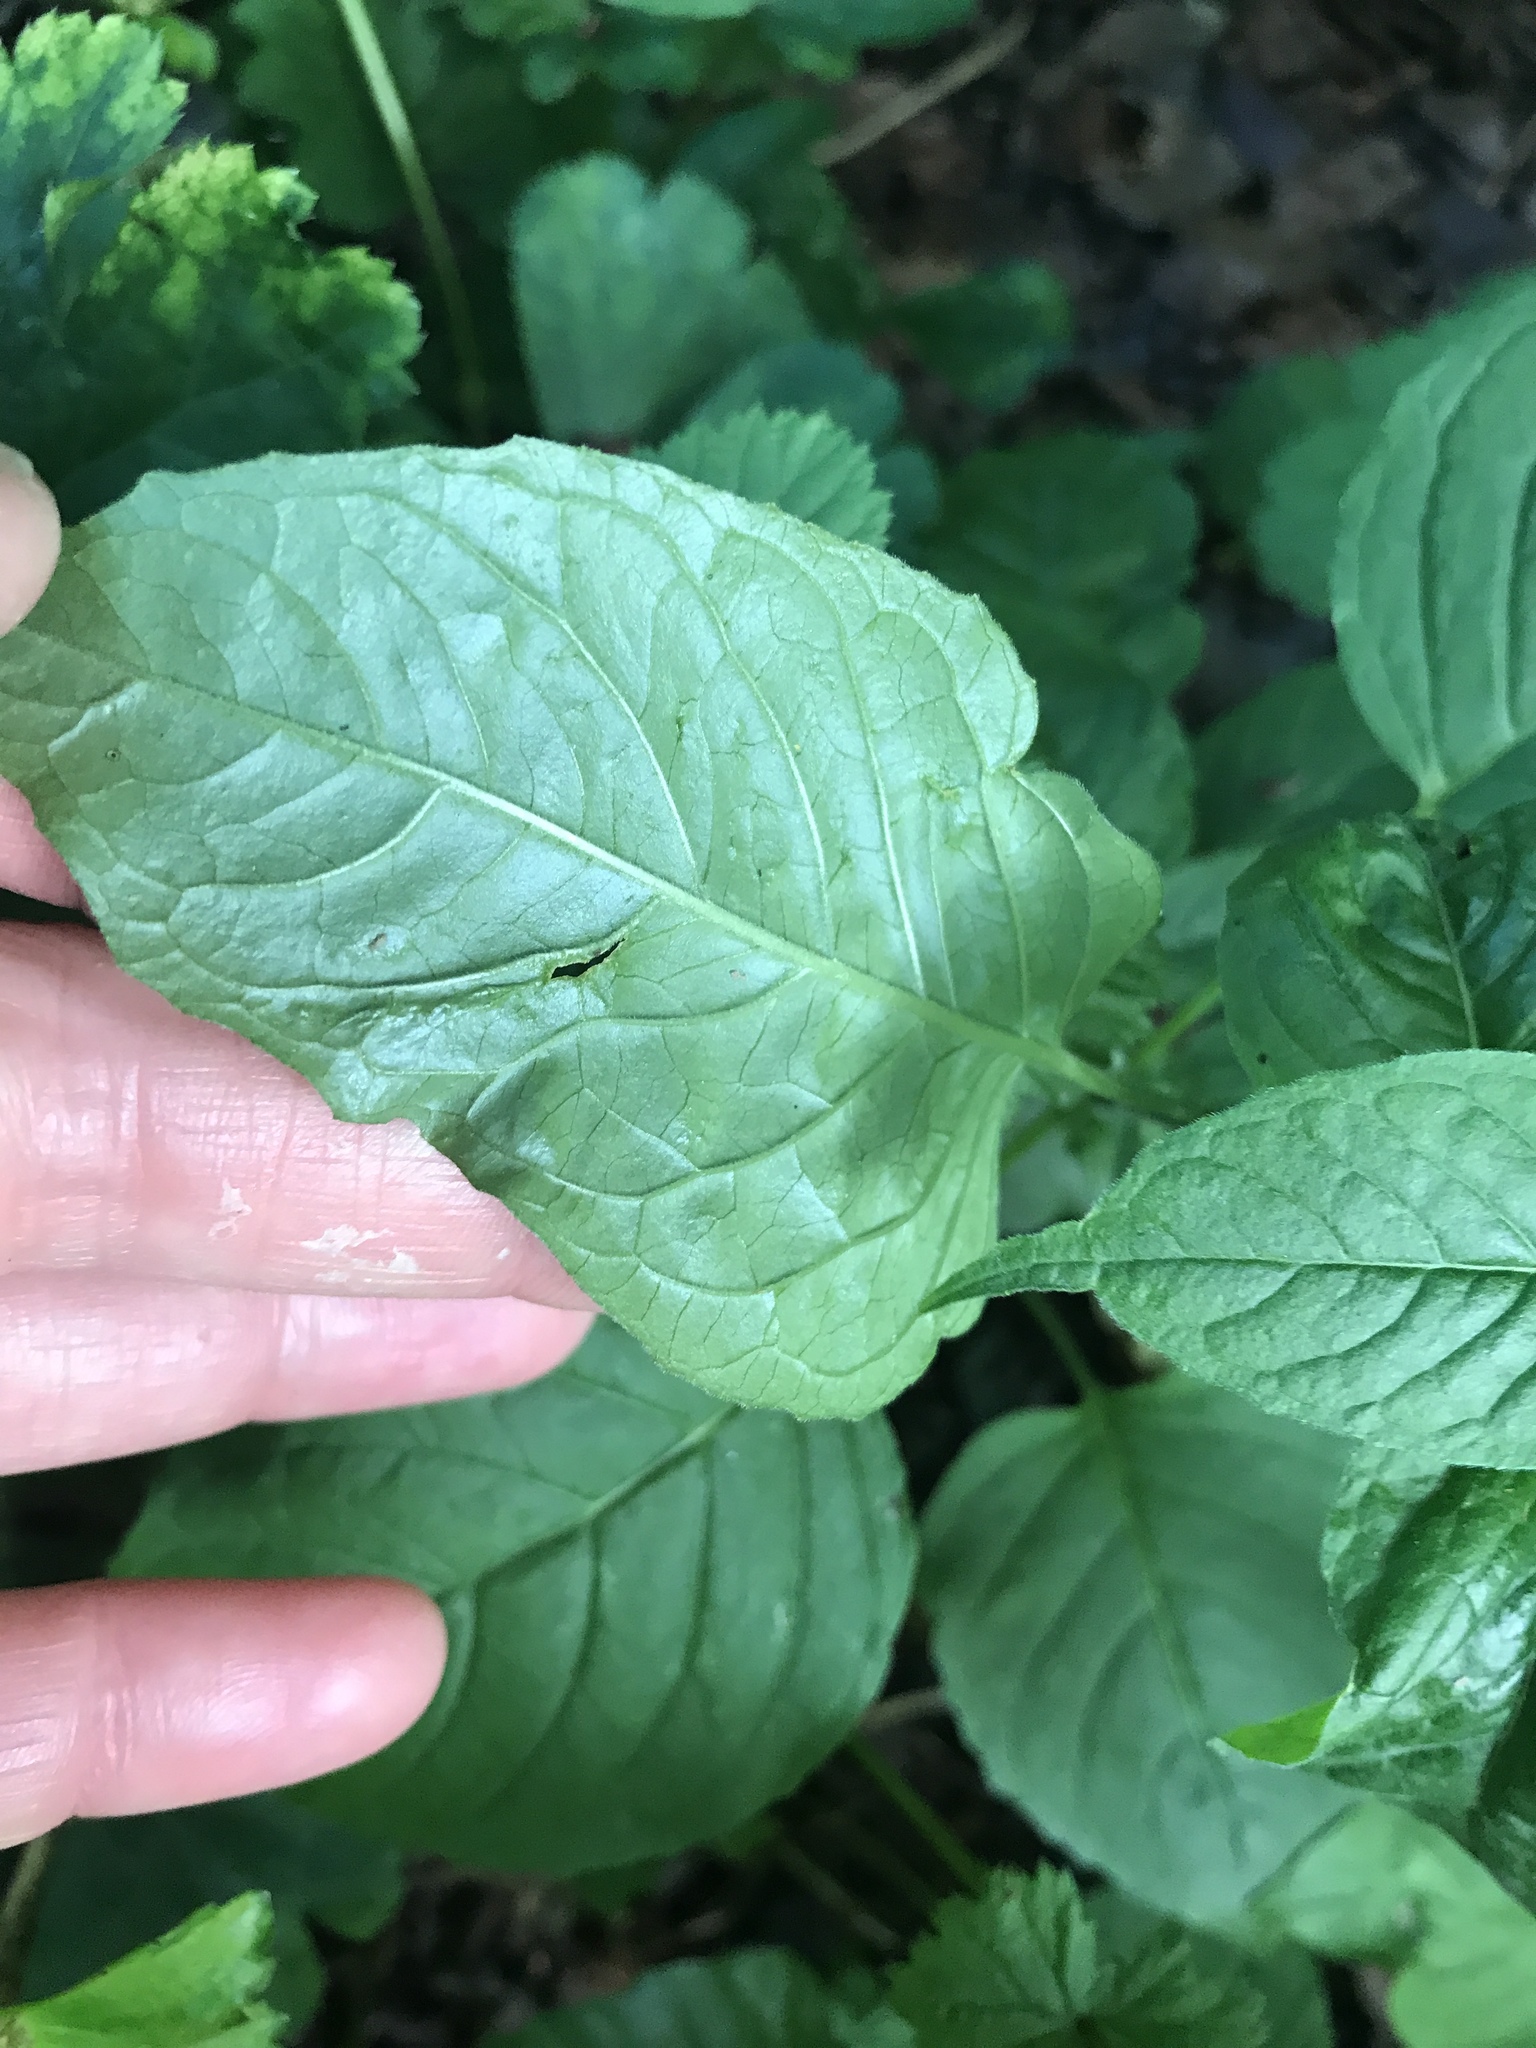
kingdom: Plantae
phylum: Tracheophyta
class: Magnoliopsida
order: Myrtales
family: Onagraceae
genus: Circaea
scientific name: Circaea lutetiana
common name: Enchanter's-nightshade
